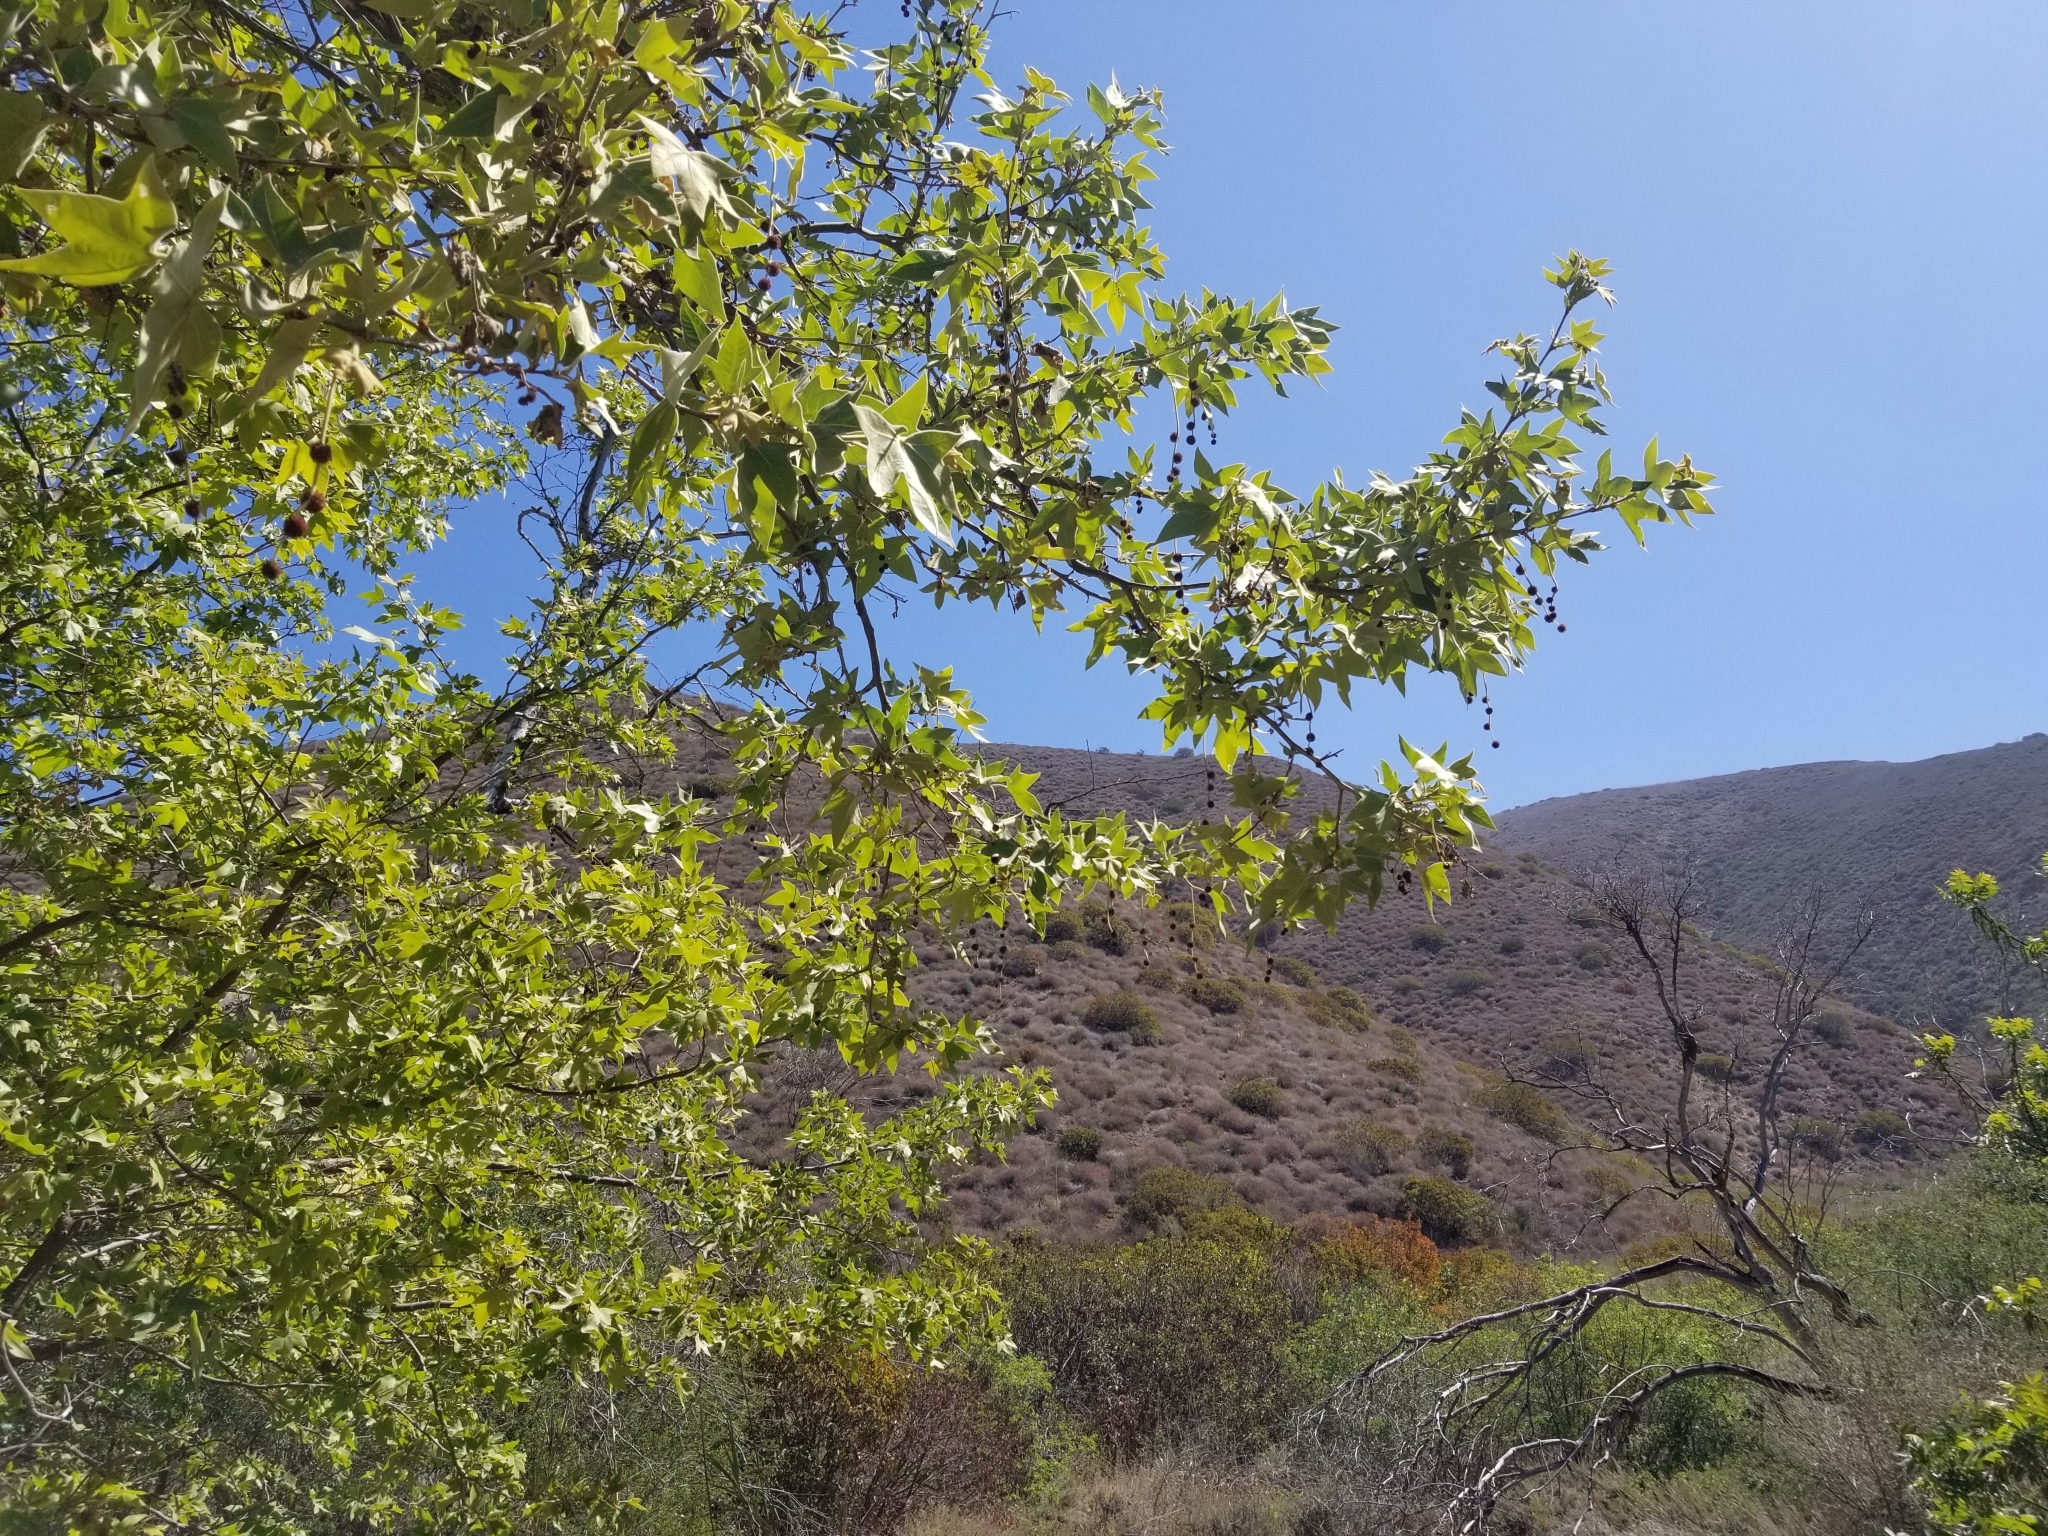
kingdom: Plantae
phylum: Tracheophyta
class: Magnoliopsida
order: Proteales
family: Platanaceae
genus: Platanus
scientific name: Platanus racemosa
